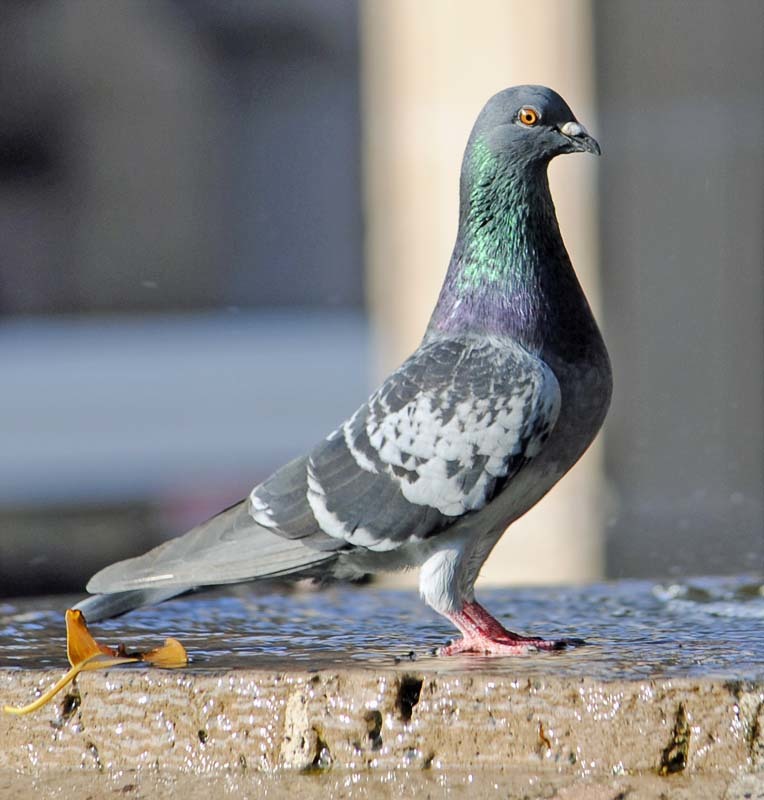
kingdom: Animalia
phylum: Chordata
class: Aves
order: Columbiformes
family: Columbidae
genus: Columba
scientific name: Columba livia
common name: Rock pigeon
